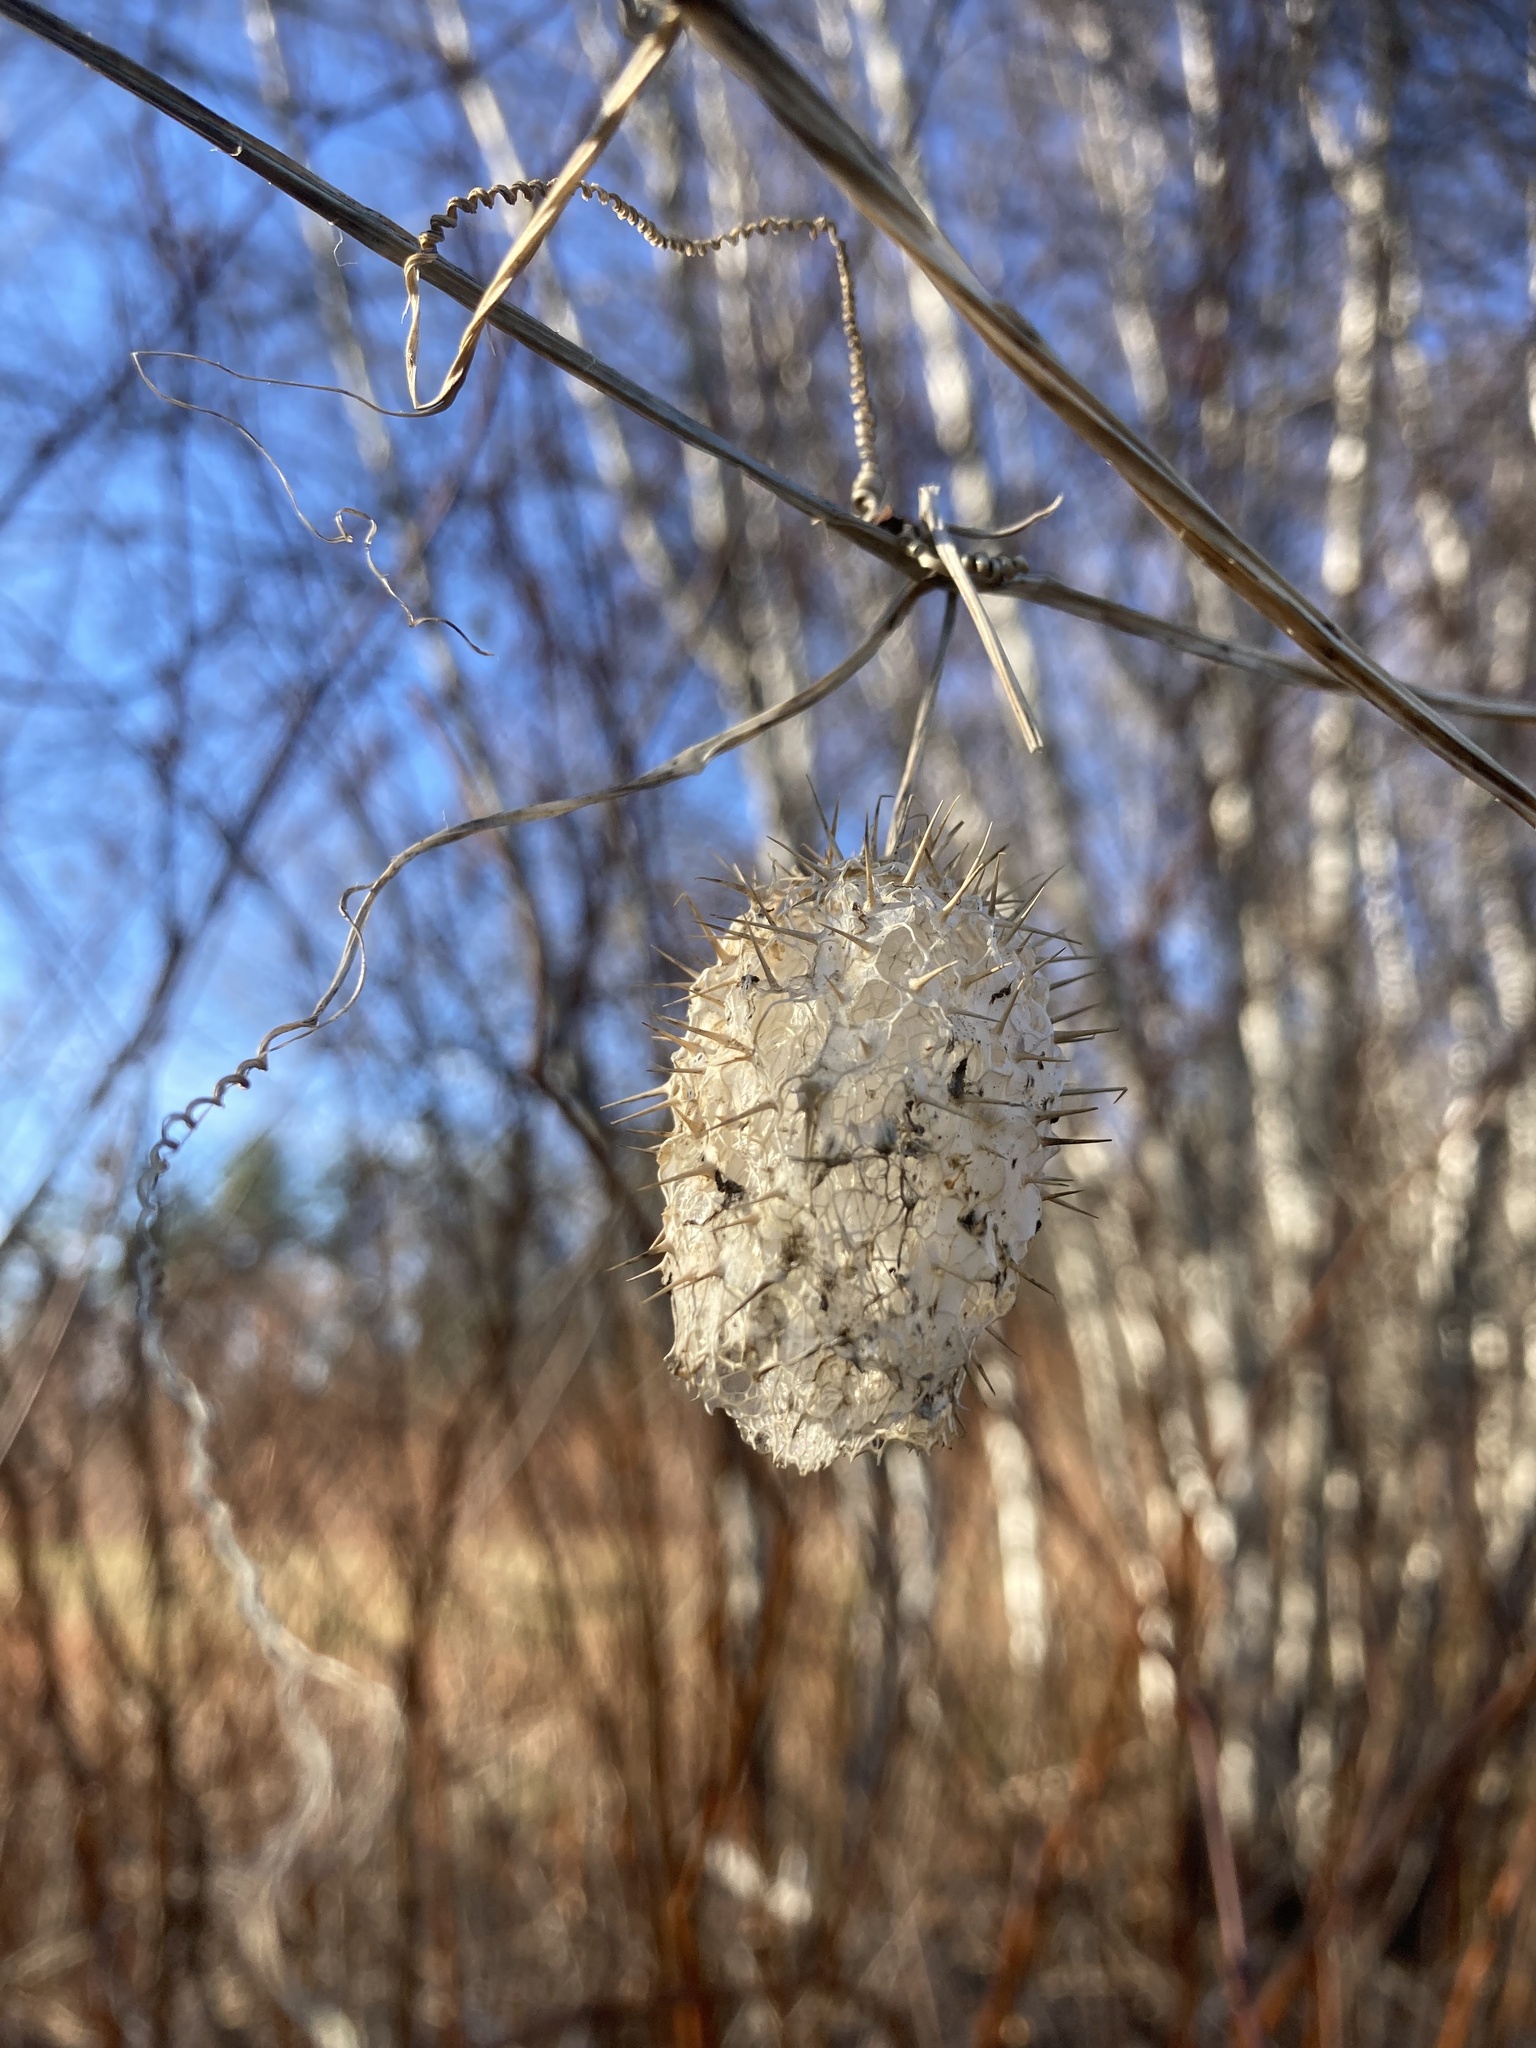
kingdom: Plantae
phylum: Tracheophyta
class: Magnoliopsida
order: Cucurbitales
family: Cucurbitaceae
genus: Echinocystis
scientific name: Echinocystis lobata
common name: Wild cucumber
